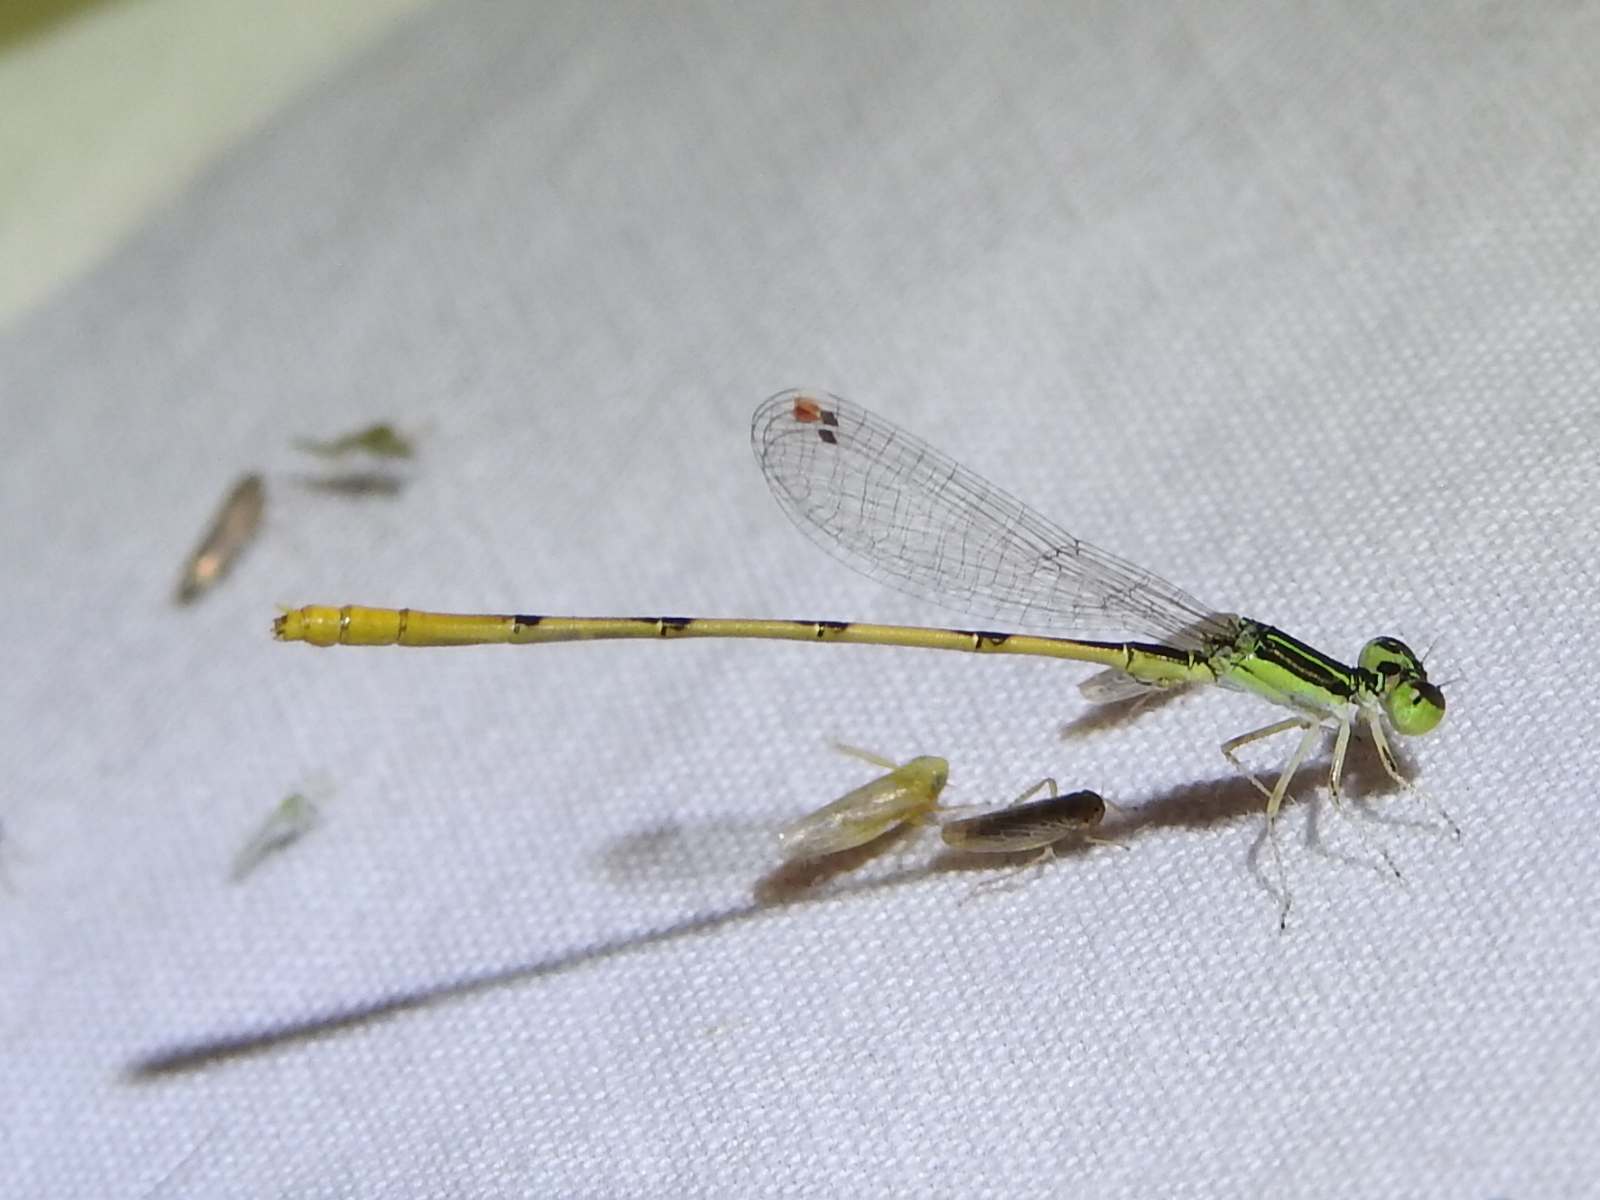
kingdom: Animalia
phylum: Arthropoda
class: Insecta
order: Odonata
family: Coenagrionidae
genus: Ischnura
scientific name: Ischnura hastata
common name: Citrine forktail
